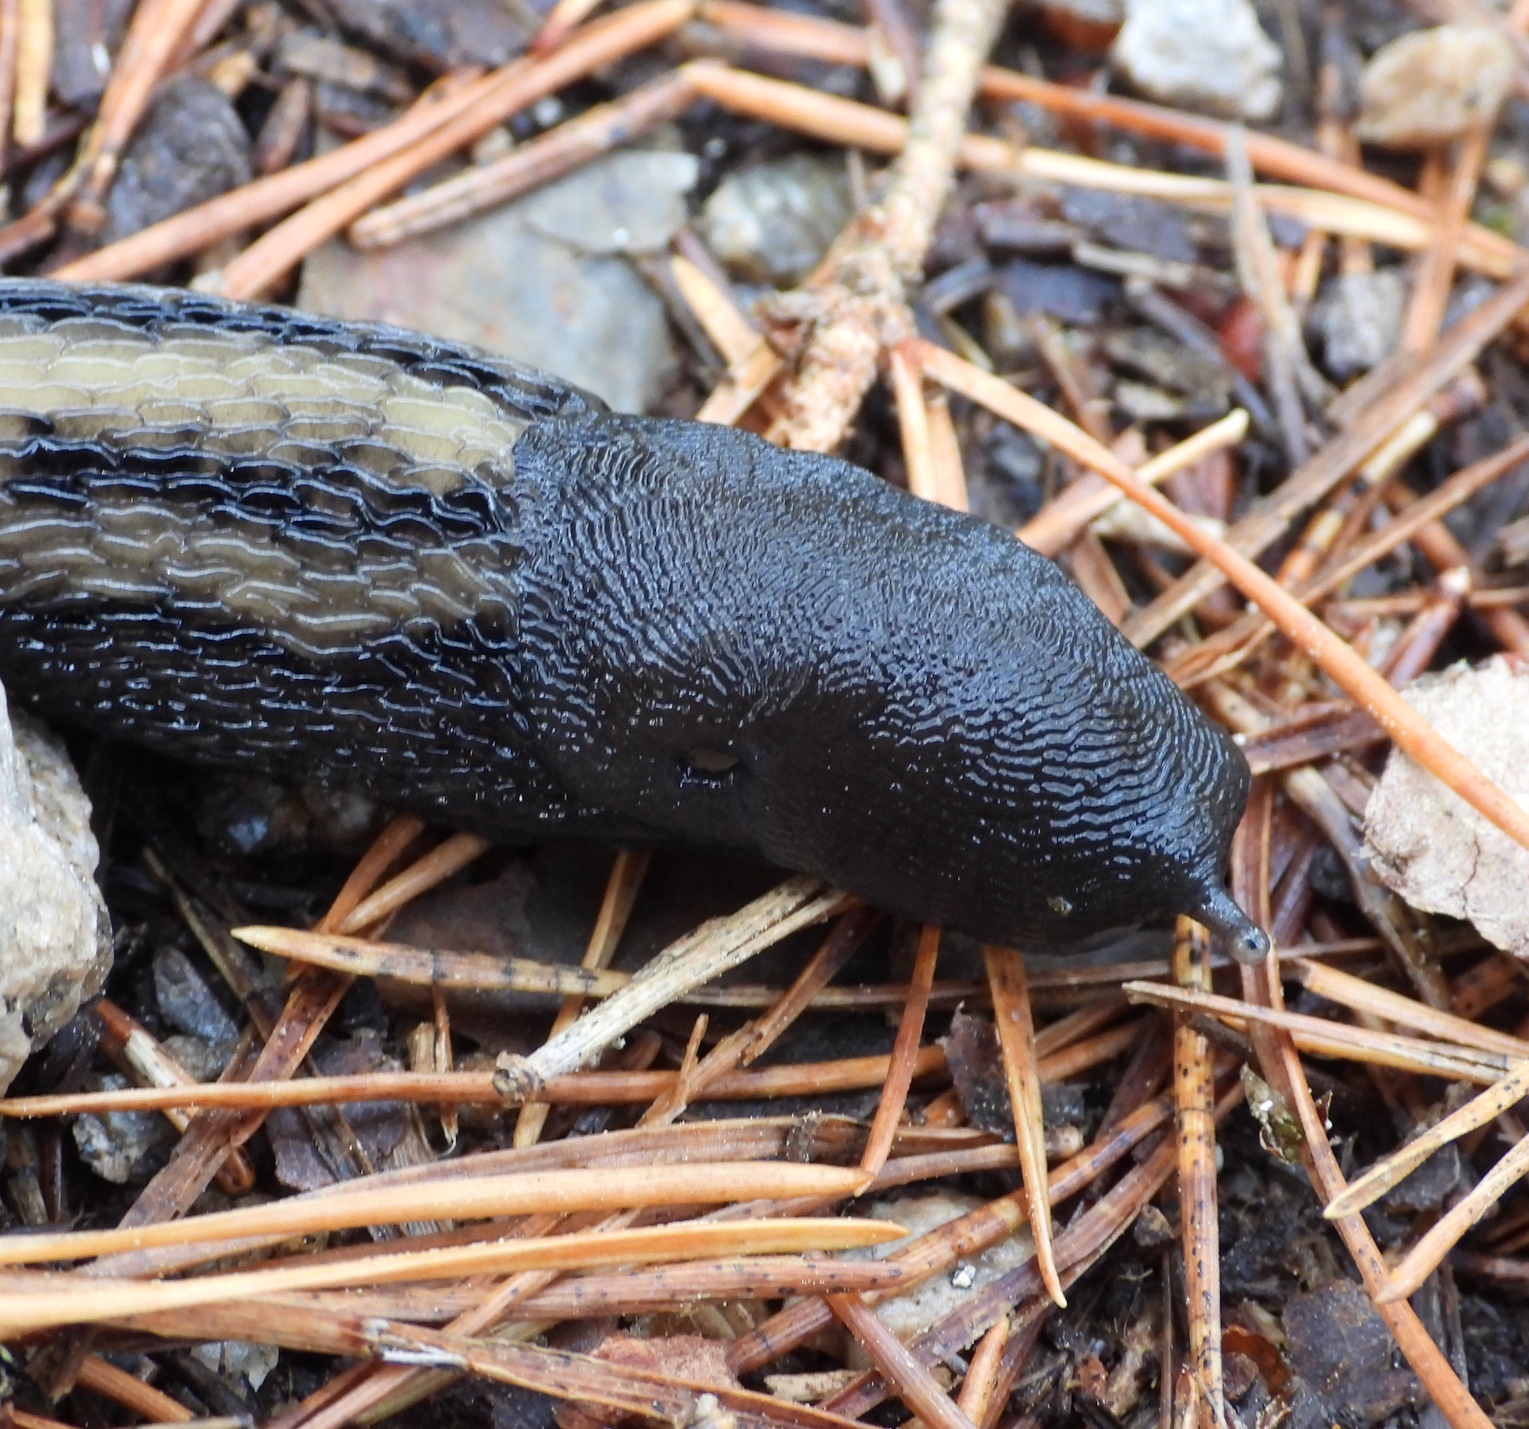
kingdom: Animalia
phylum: Mollusca
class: Gastropoda
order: Stylommatophora
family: Limacidae
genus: Limax
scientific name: Limax cinereoniger
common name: Ash-black slug
